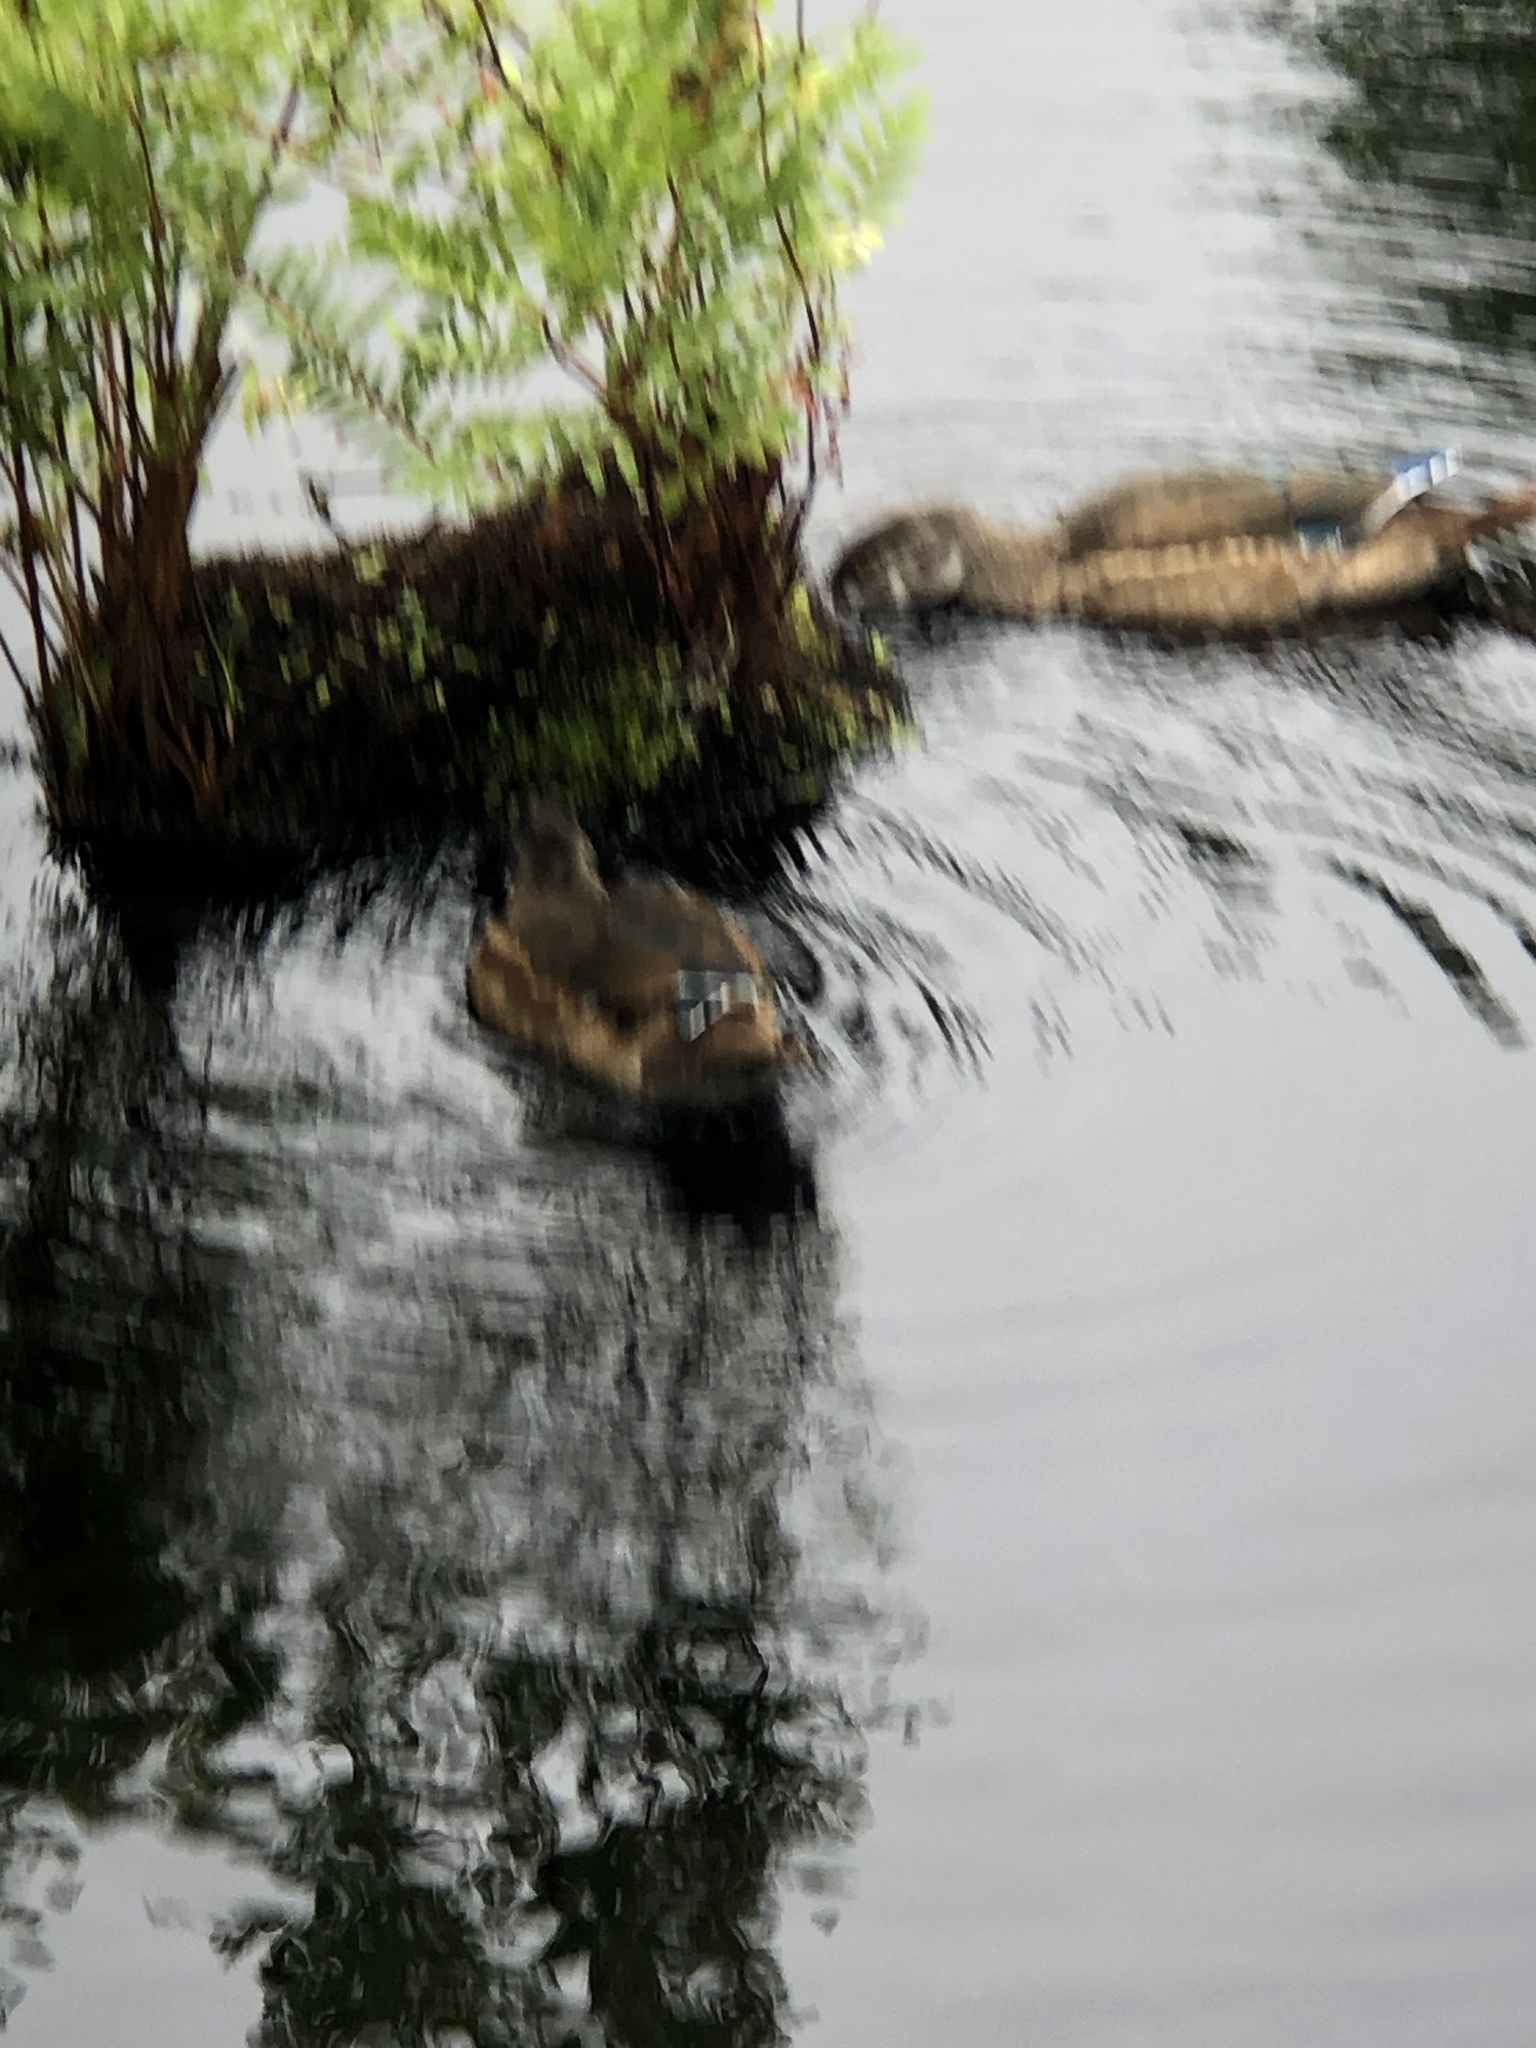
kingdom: Animalia
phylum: Chordata
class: Aves
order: Anseriformes
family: Anatidae
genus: Aix
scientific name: Aix sponsa
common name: Wood duck
